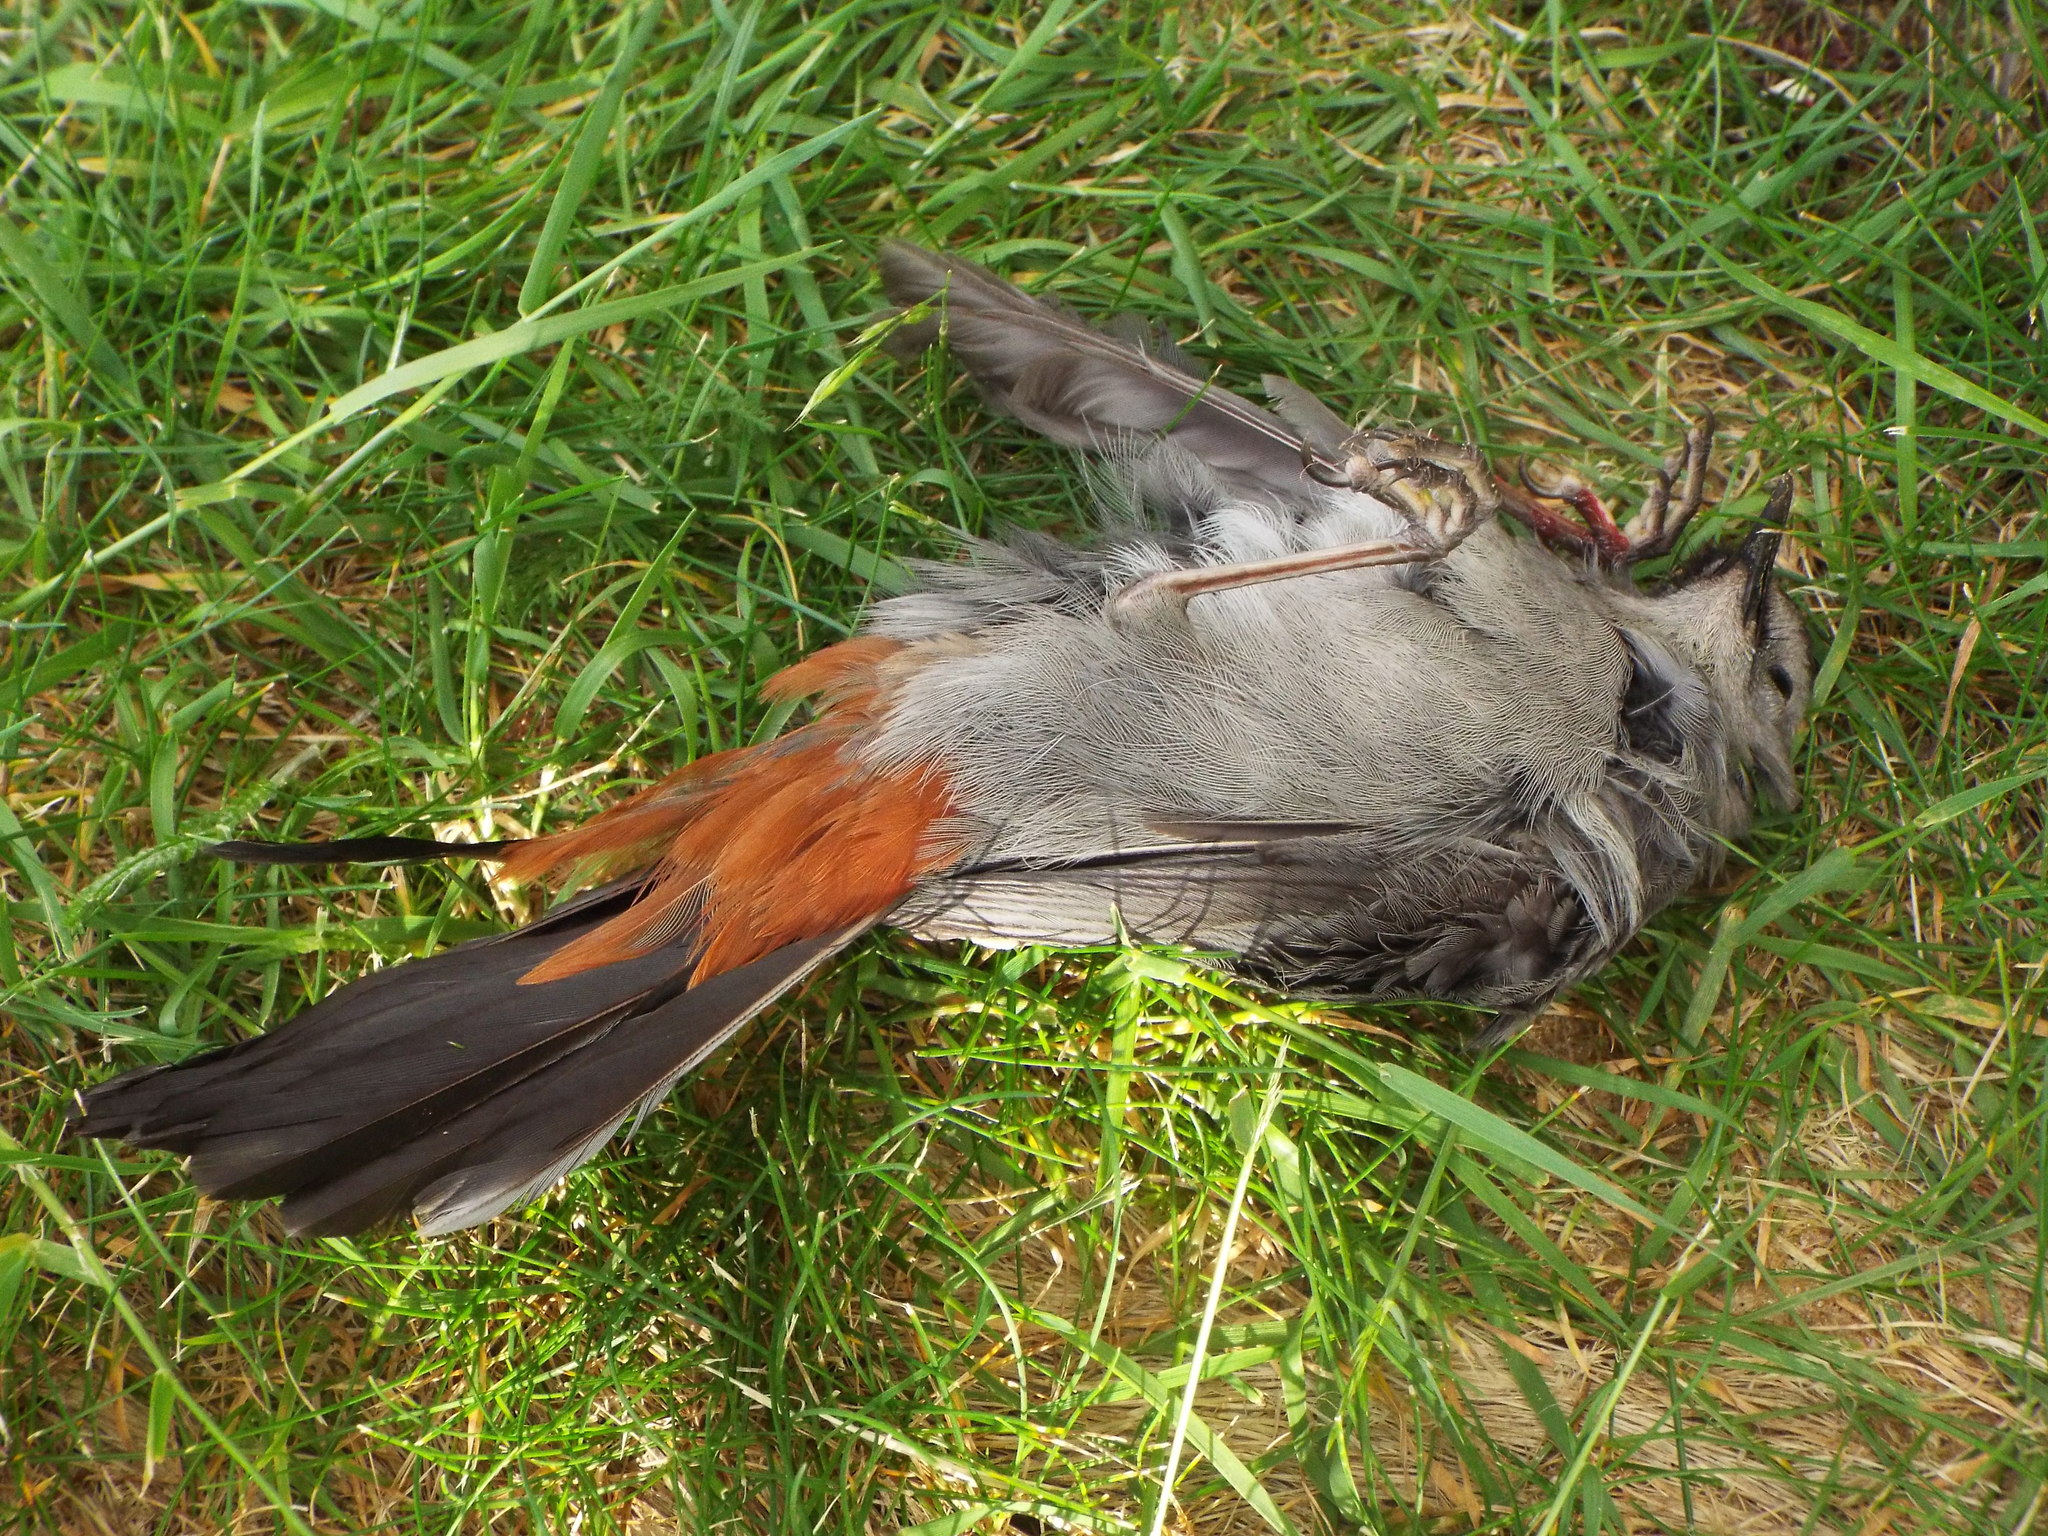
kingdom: Animalia
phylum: Chordata
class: Aves
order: Passeriformes
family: Mimidae
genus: Dumetella
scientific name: Dumetella carolinensis
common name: Gray catbird
